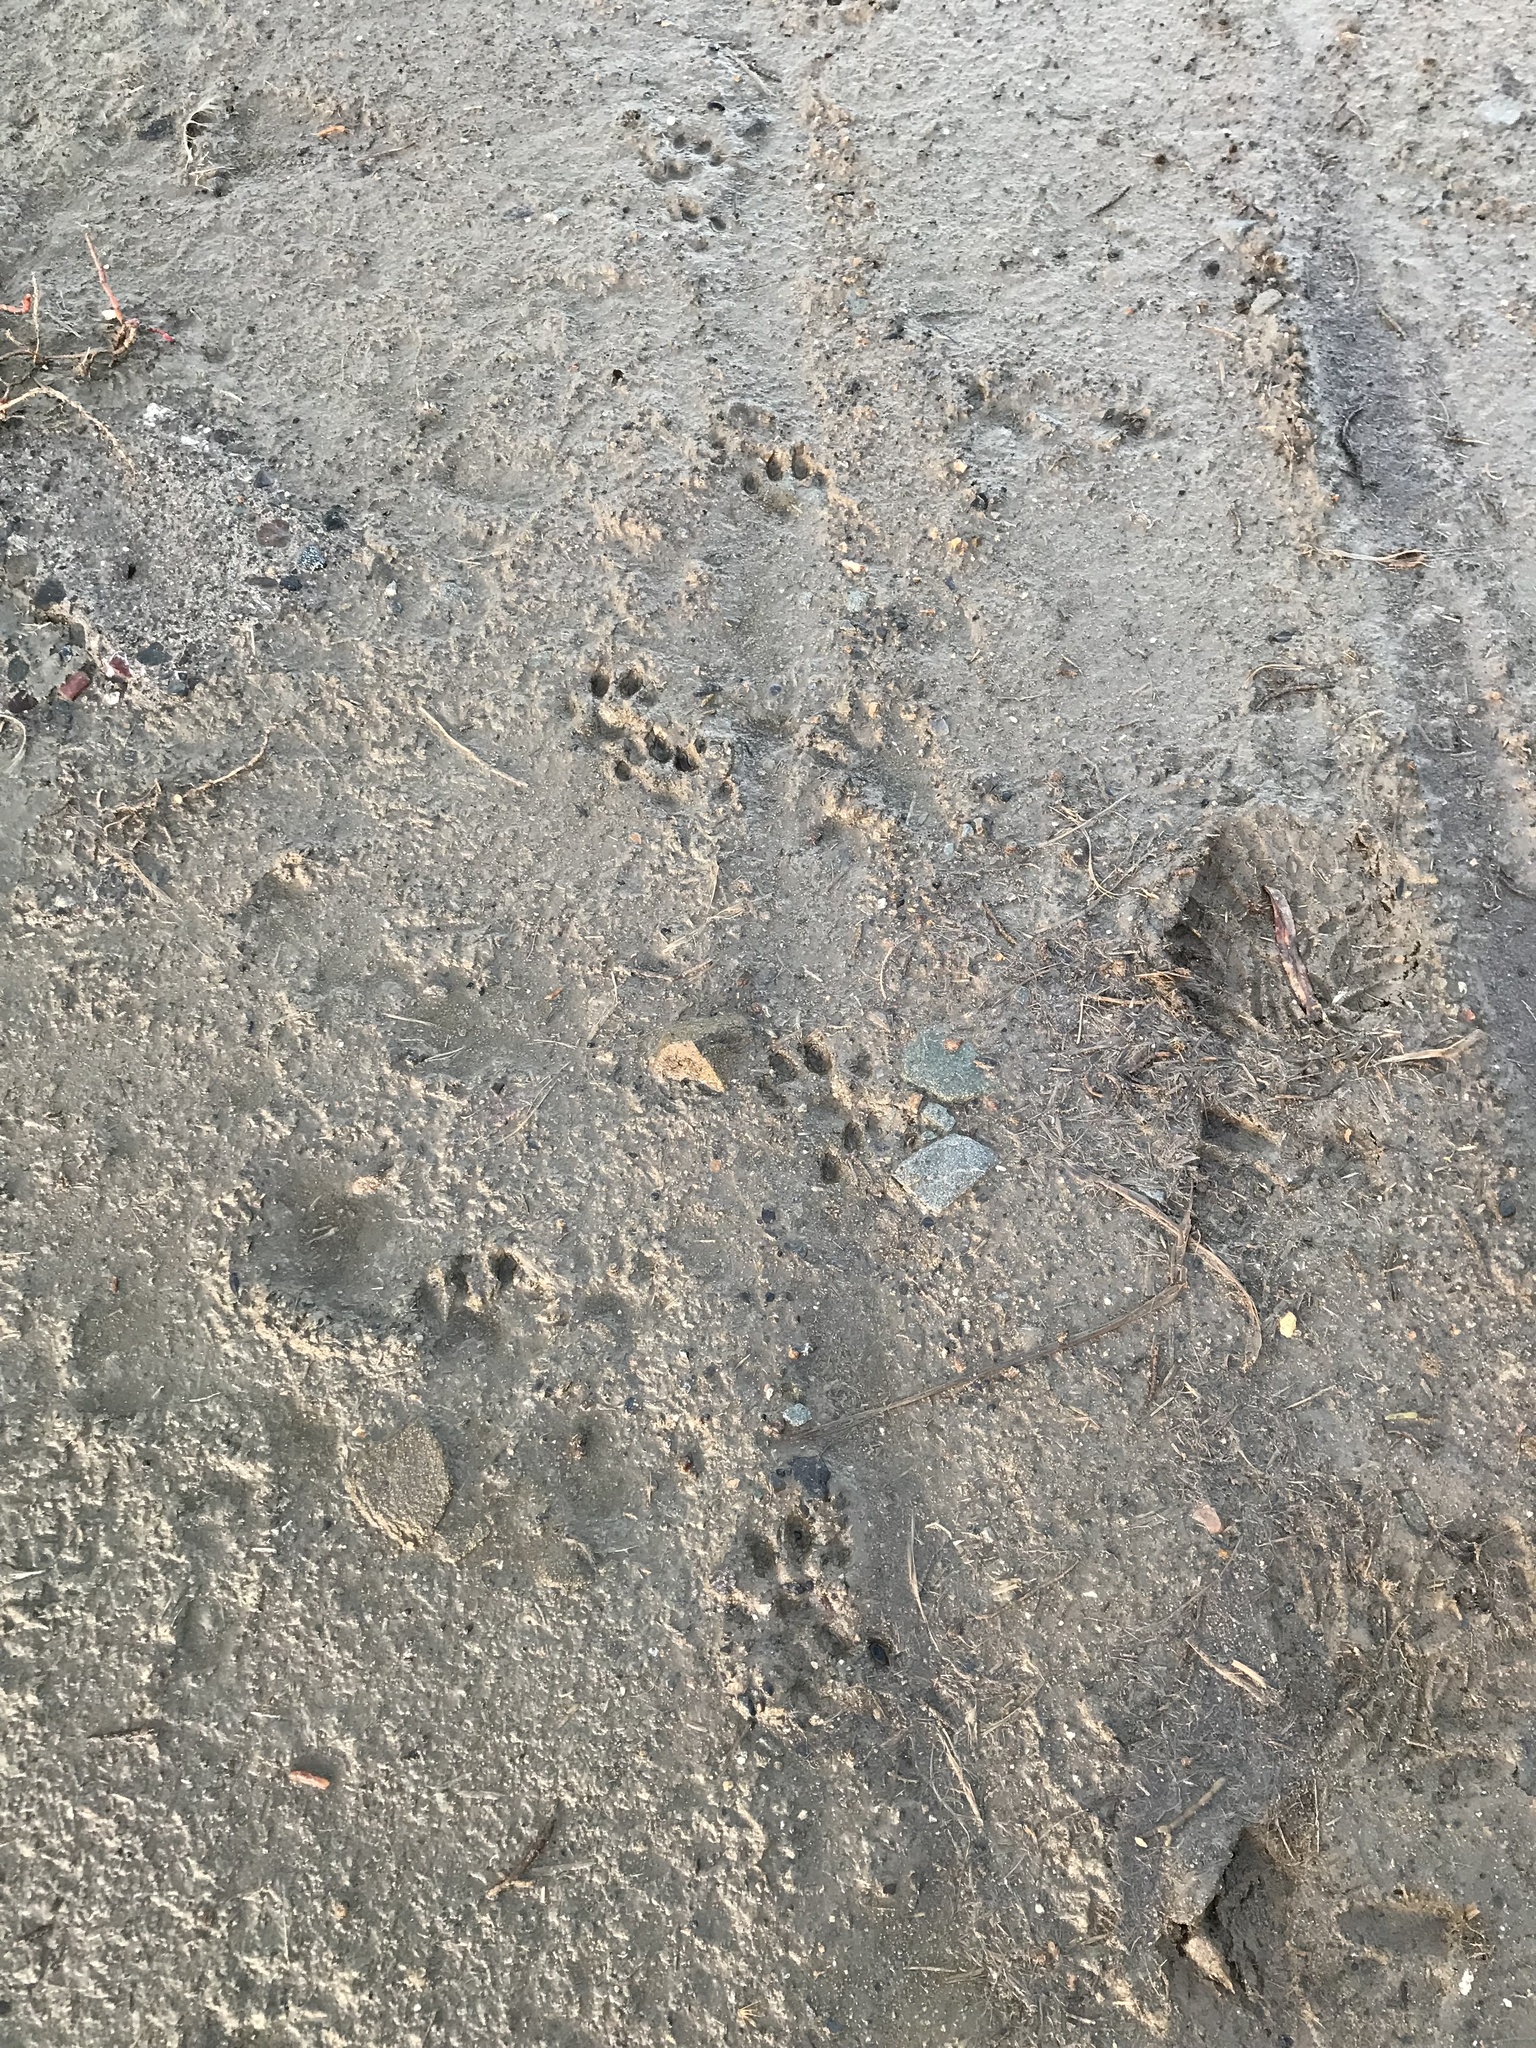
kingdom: Animalia
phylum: Chordata
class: Mammalia
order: Carnivora
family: Mustelidae
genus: Lontra
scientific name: Lontra canadensis
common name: North american river otter
